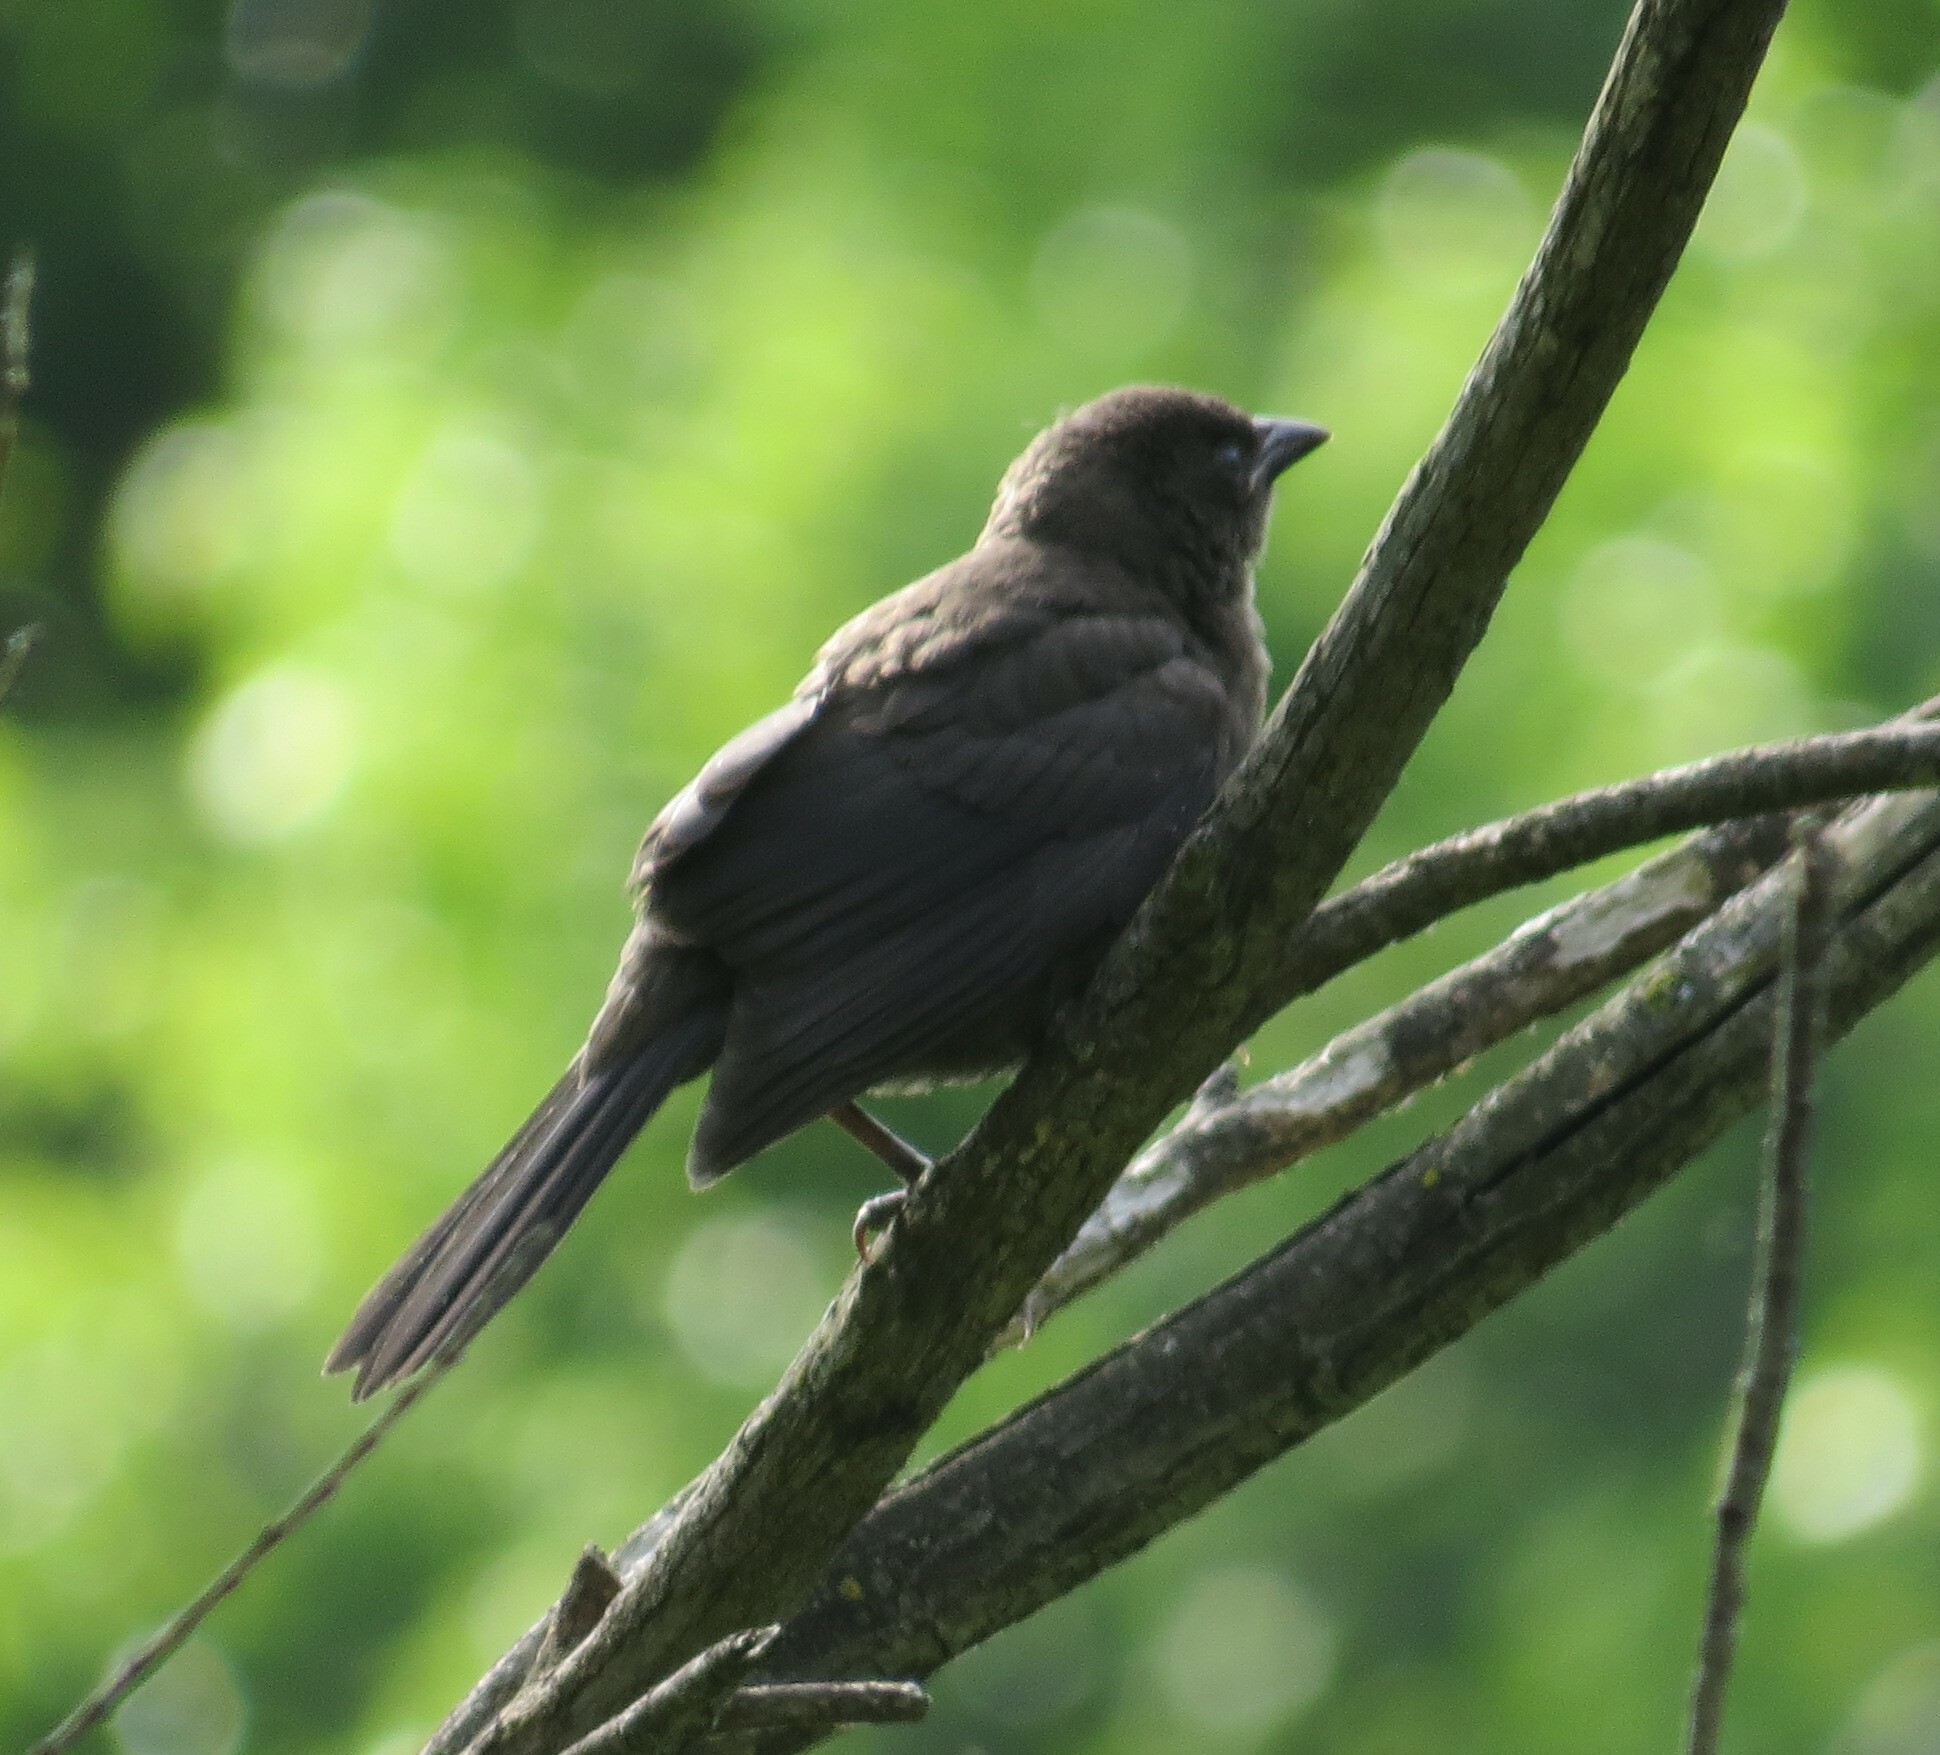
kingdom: Animalia
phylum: Chordata
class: Aves
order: Passeriformes
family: Icteridae
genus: Quiscalus
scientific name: Quiscalus quiscula
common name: Common grackle
